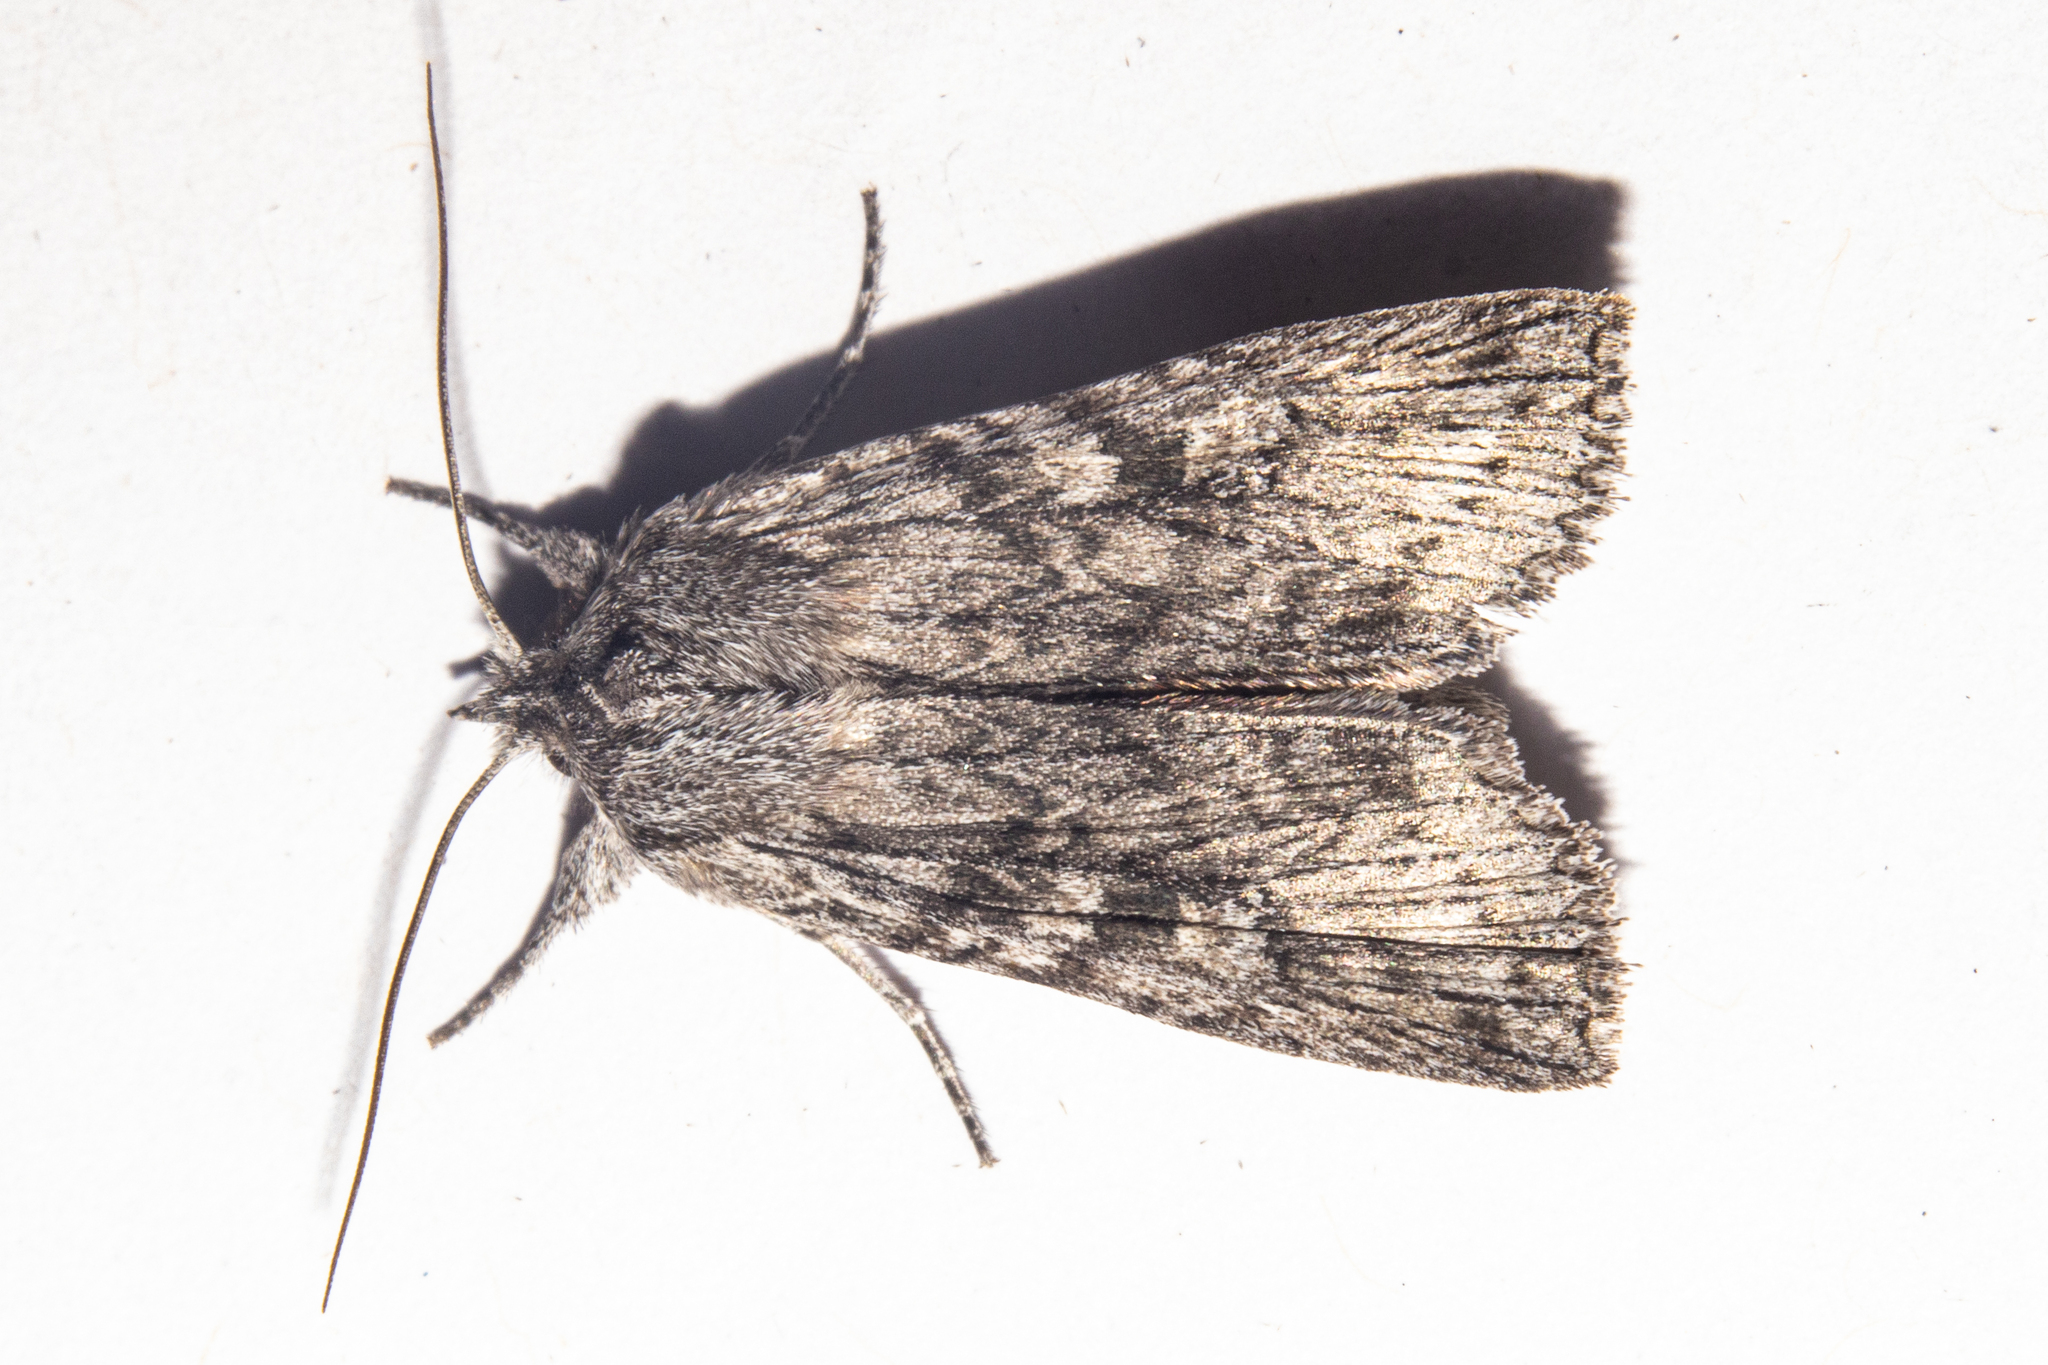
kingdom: Animalia
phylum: Arthropoda
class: Insecta
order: Lepidoptera
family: Noctuidae
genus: Physetica
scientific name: Physetica phricias
